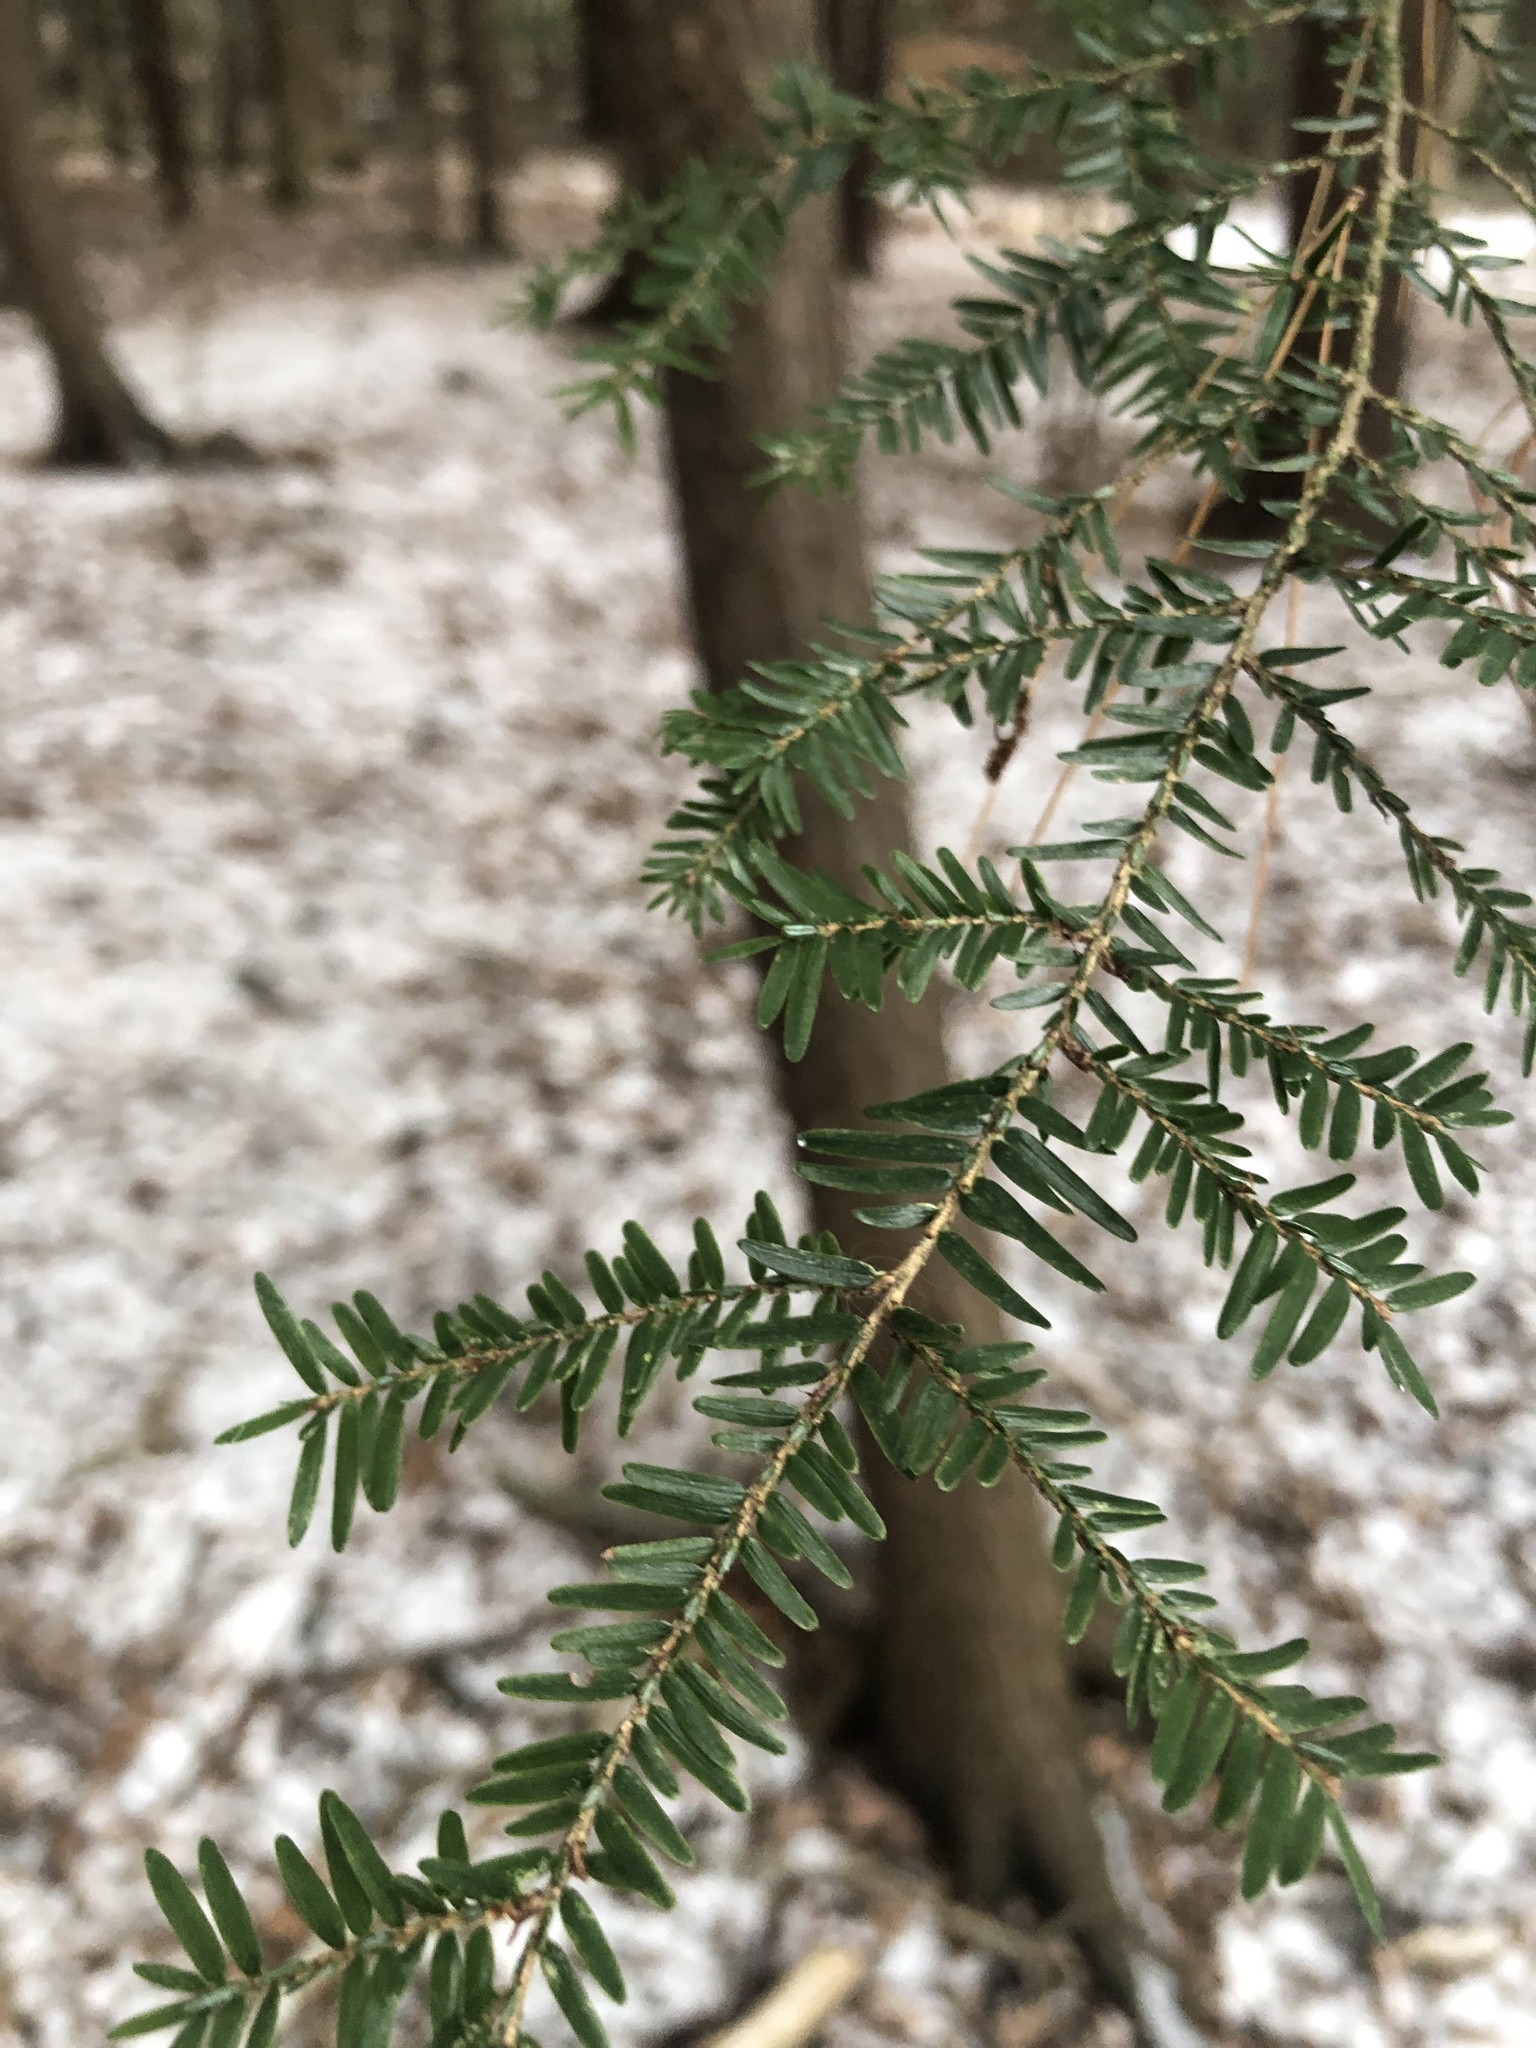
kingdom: Plantae
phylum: Tracheophyta
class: Pinopsida
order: Pinales
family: Pinaceae
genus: Tsuga
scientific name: Tsuga canadensis
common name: Eastern hemlock
